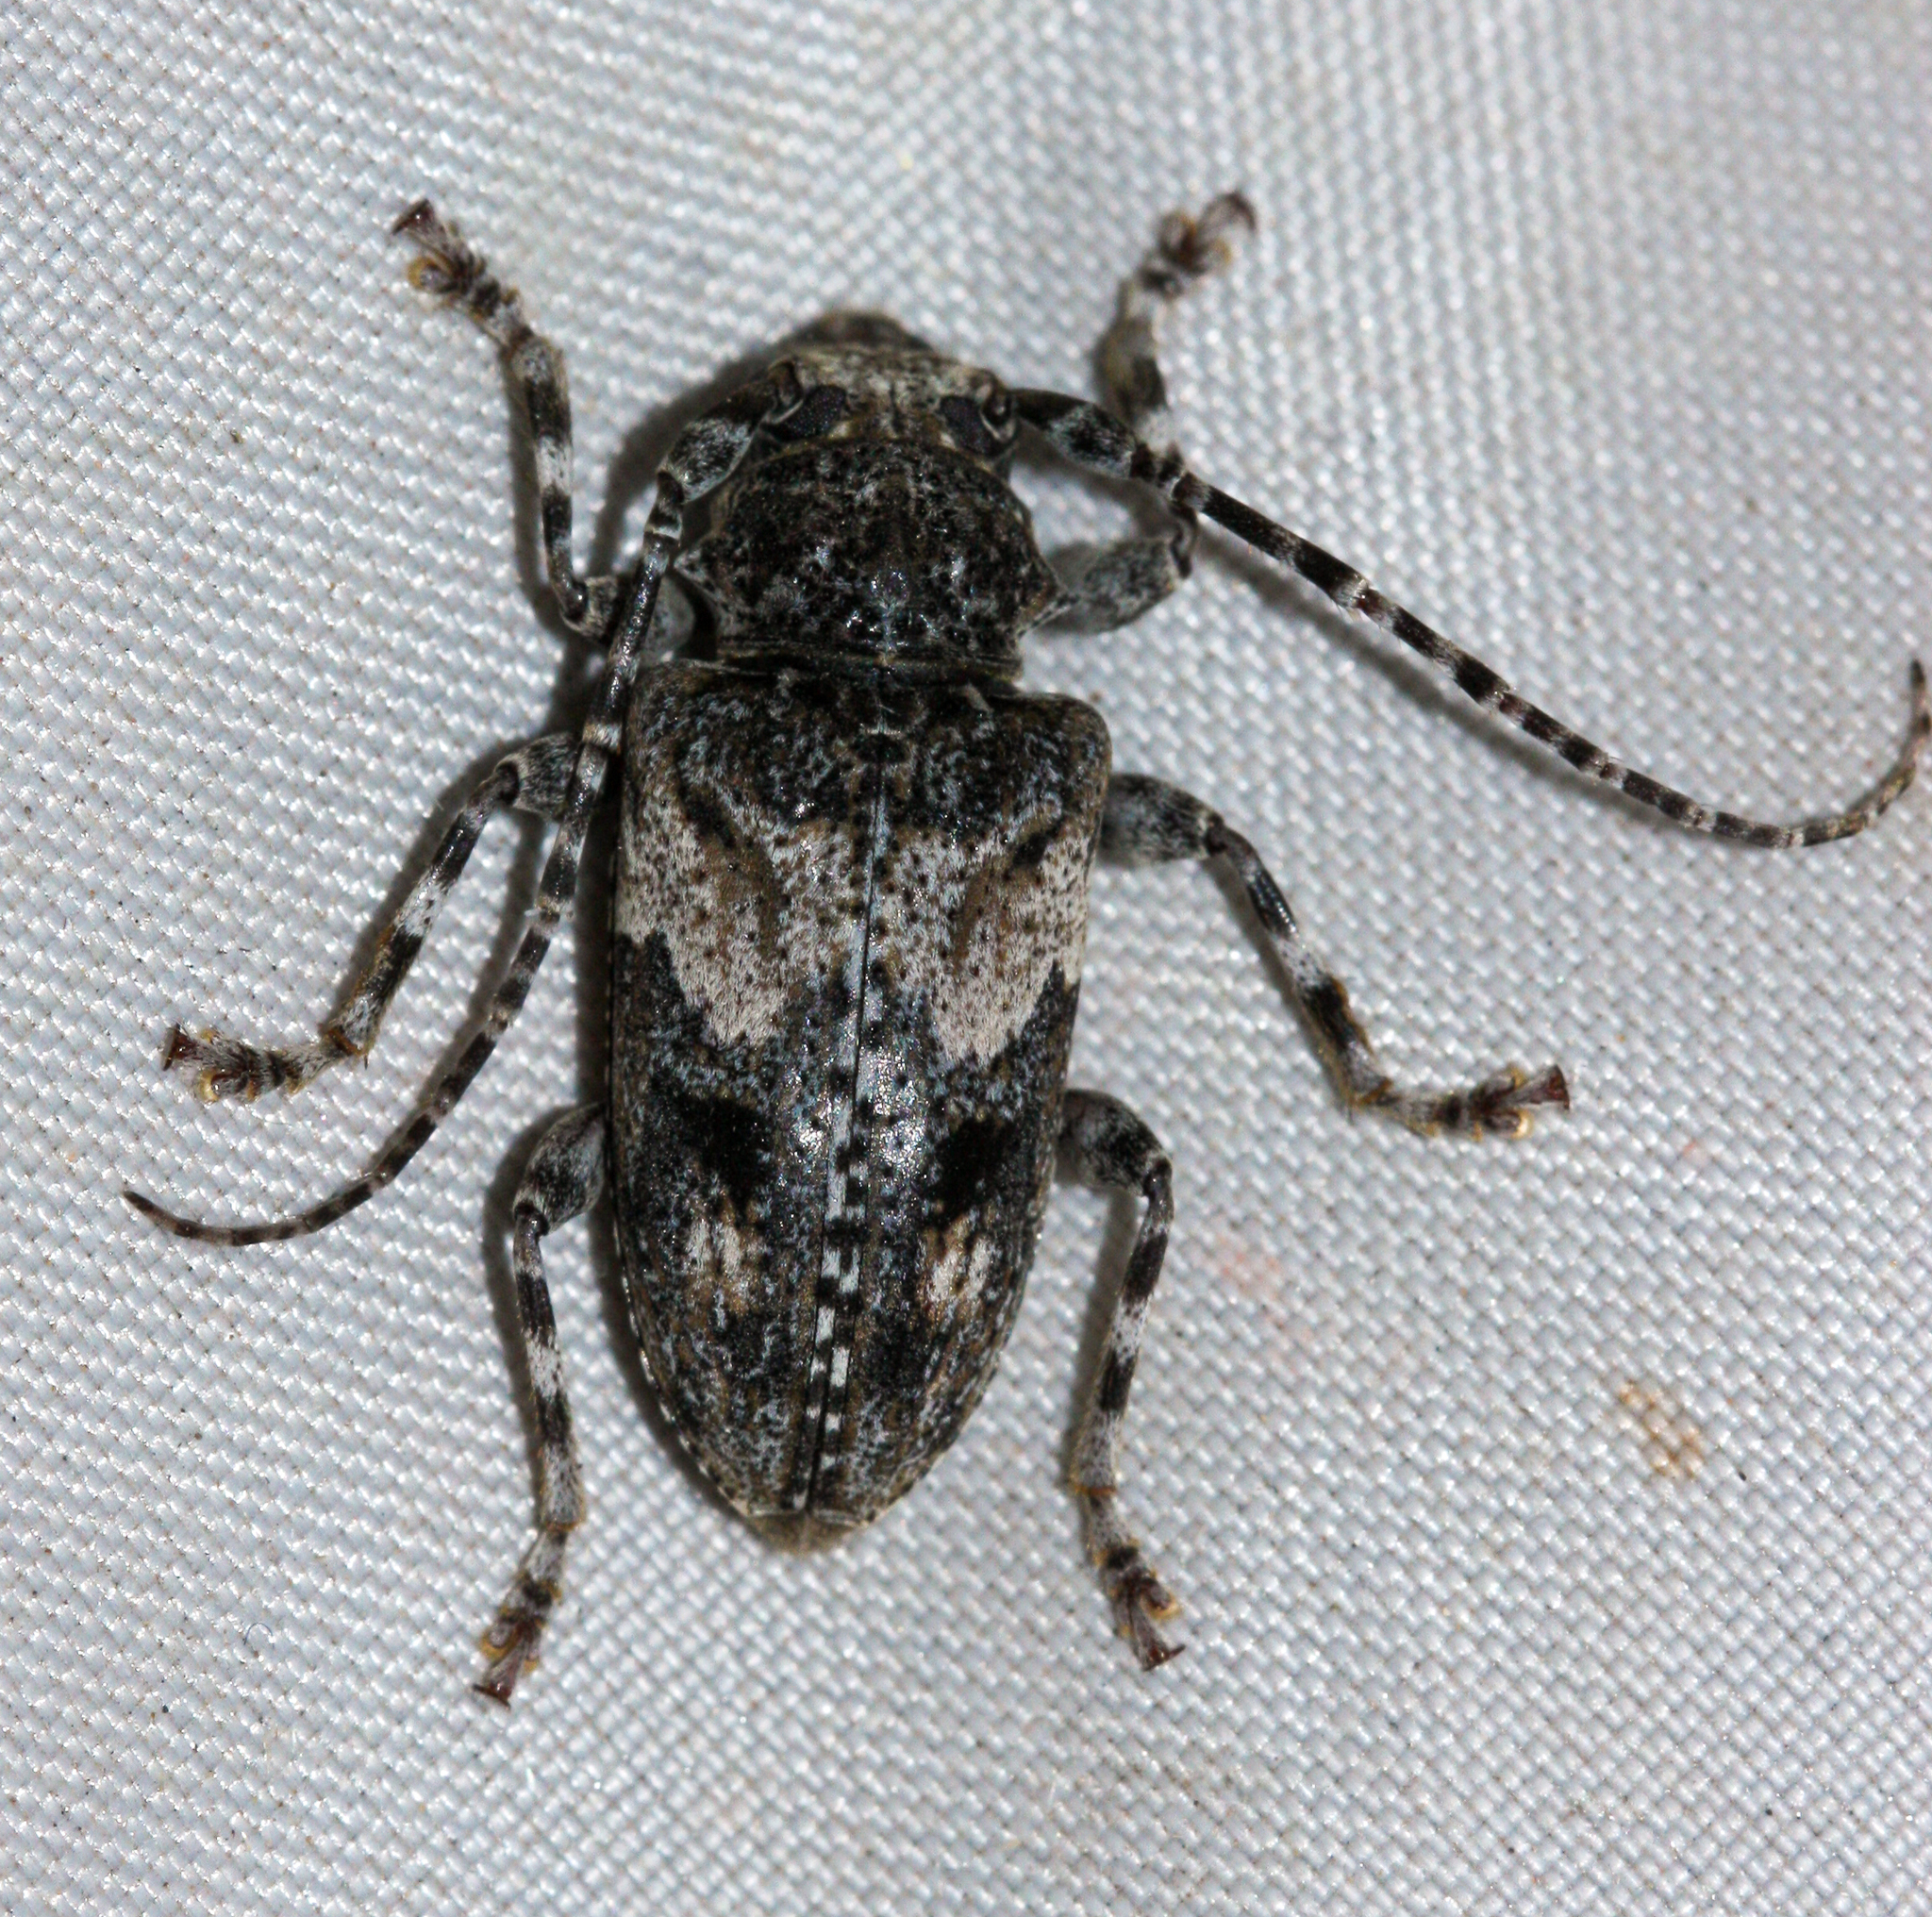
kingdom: Animalia
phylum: Arthropoda
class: Insecta
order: Coleoptera
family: Cerambycidae
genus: Aegomorphus
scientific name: Aegomorphus arizonicus
